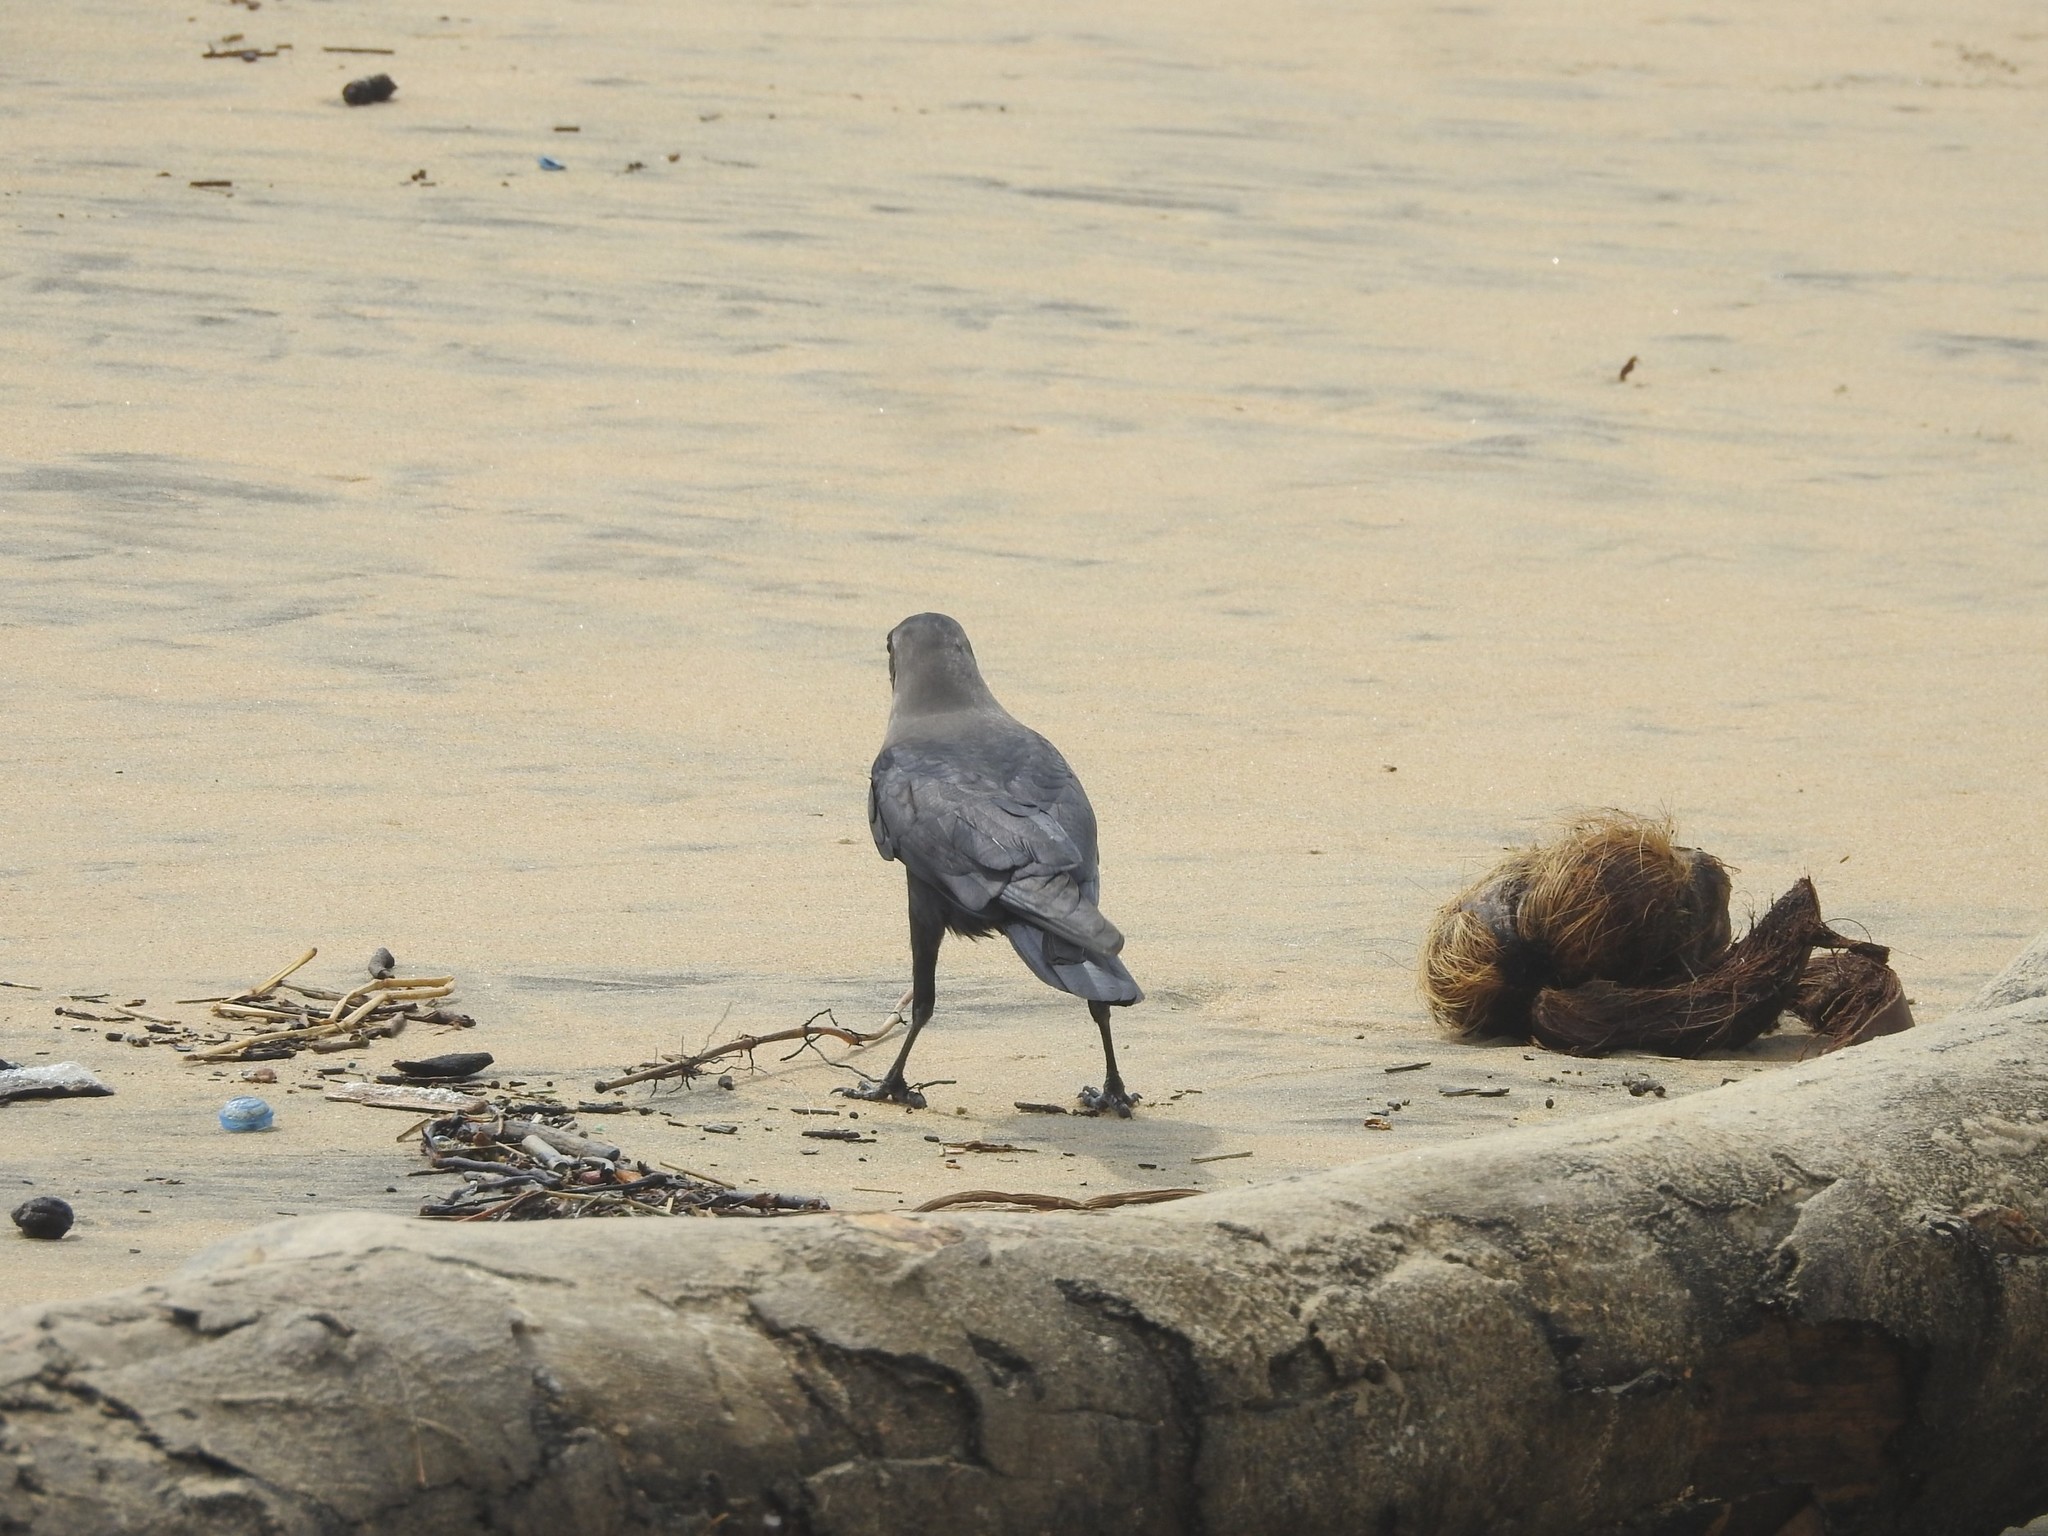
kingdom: Animalia
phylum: Chordata
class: Aves
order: Passeriformes
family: Corvidae
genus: Corvus
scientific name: Corvus splendens
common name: House crow
